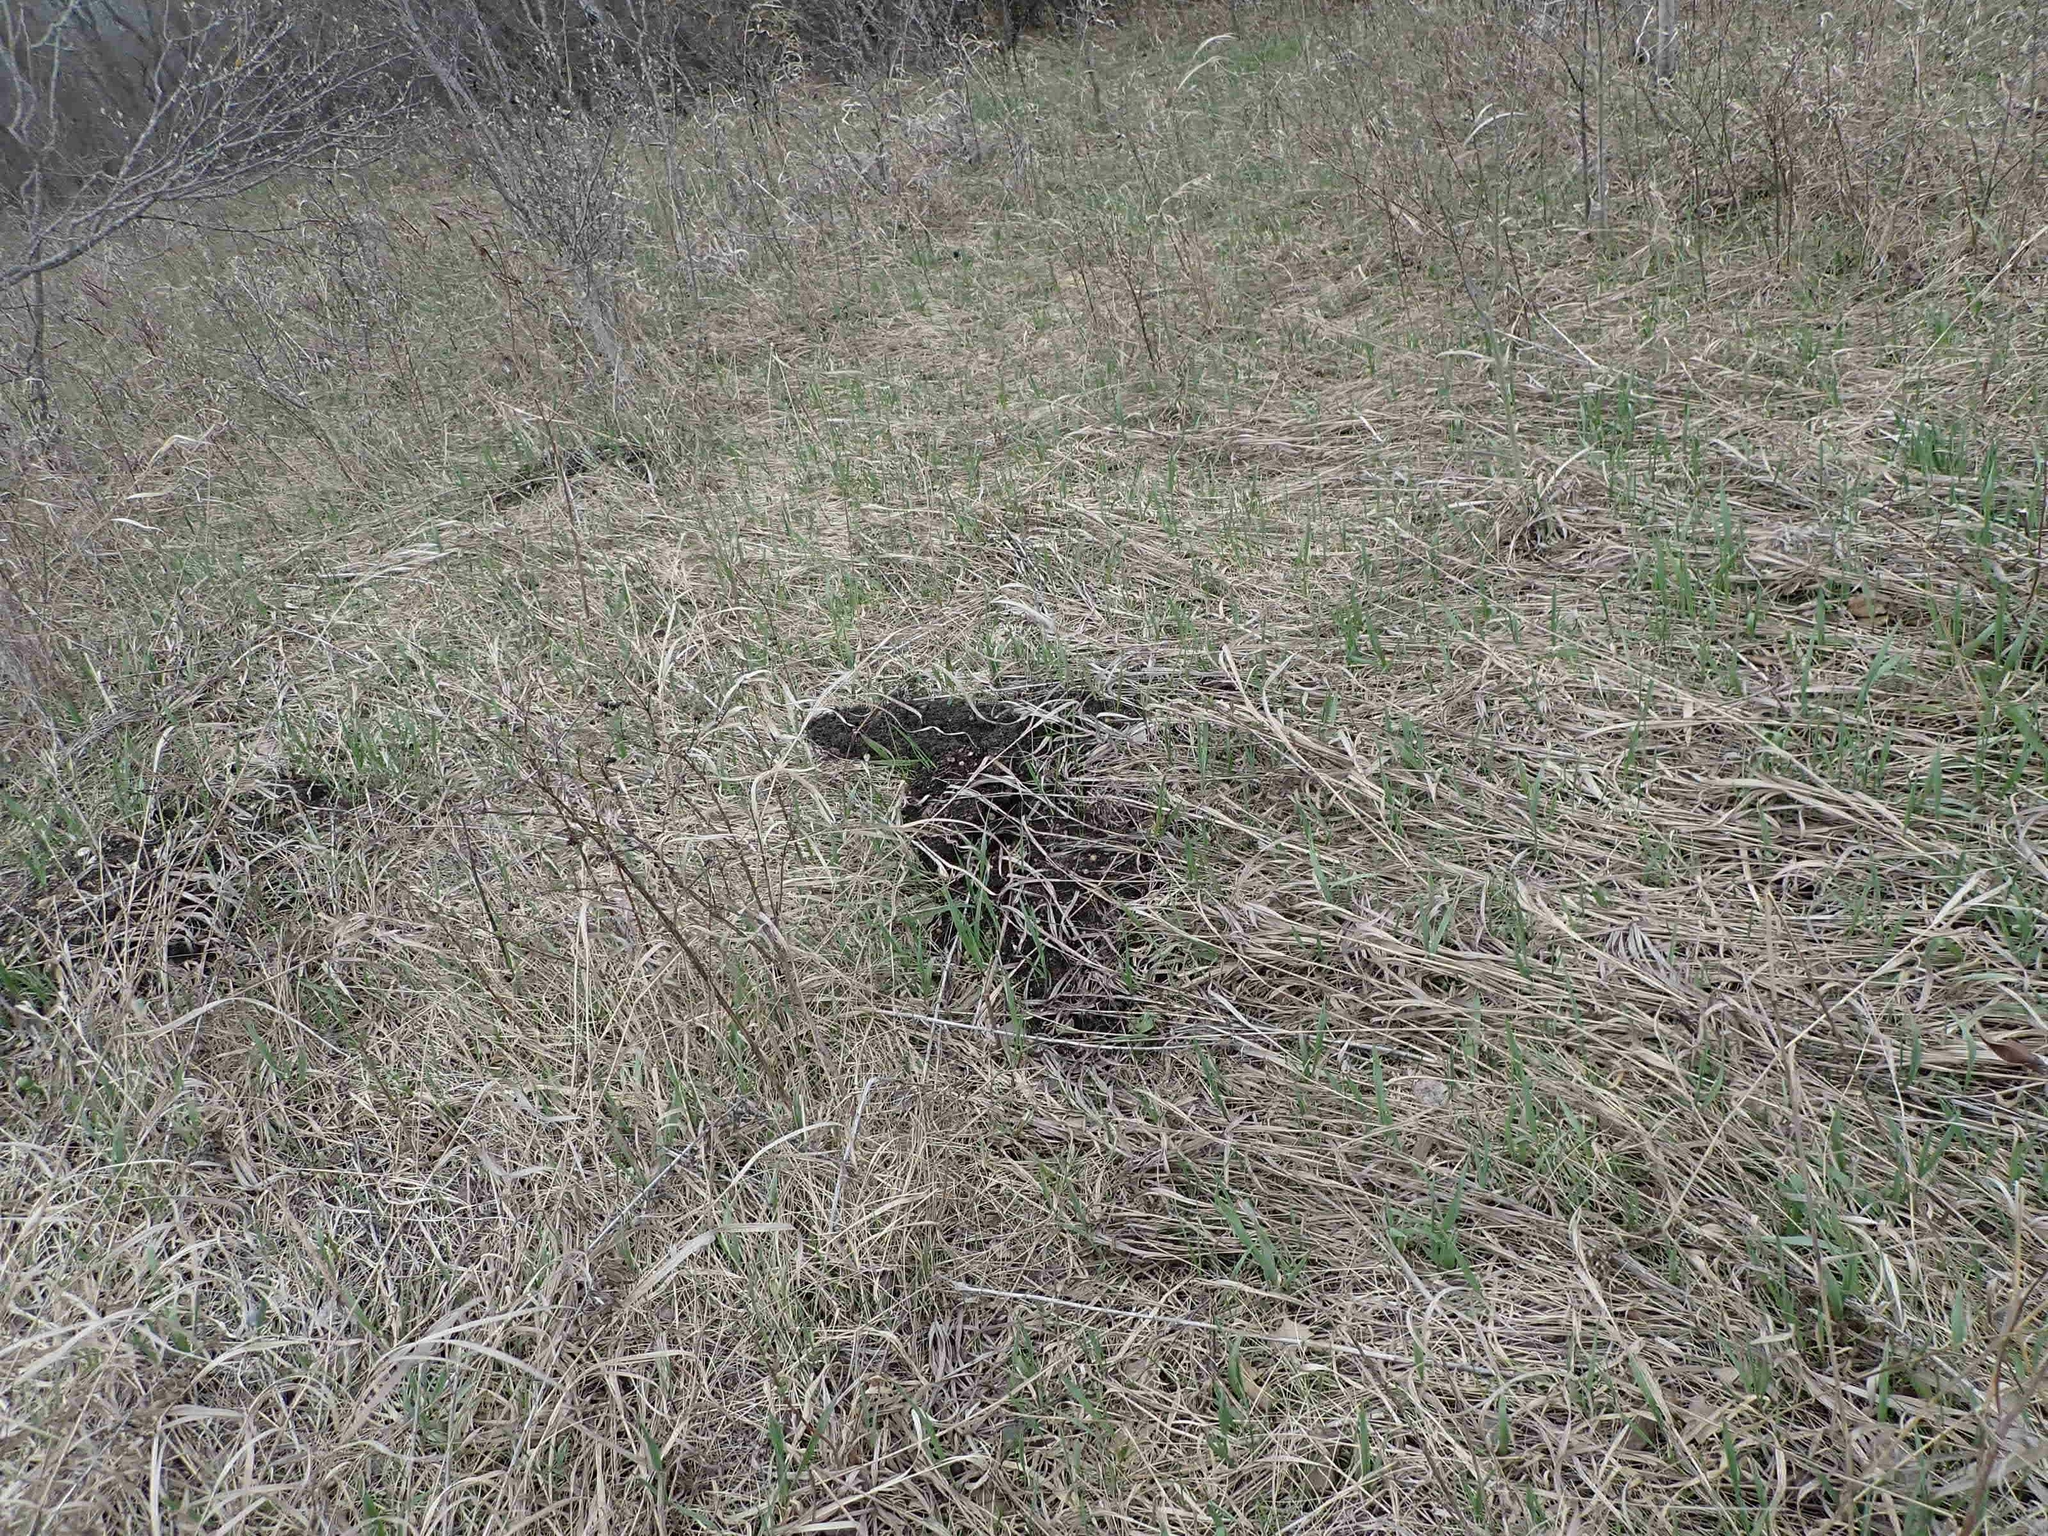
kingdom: Animalia
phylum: Chordata
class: Mammalia
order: Rodentia
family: Geomyidae
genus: Thomomys
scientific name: Thomomys talpoides
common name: Northern pocket gopher
